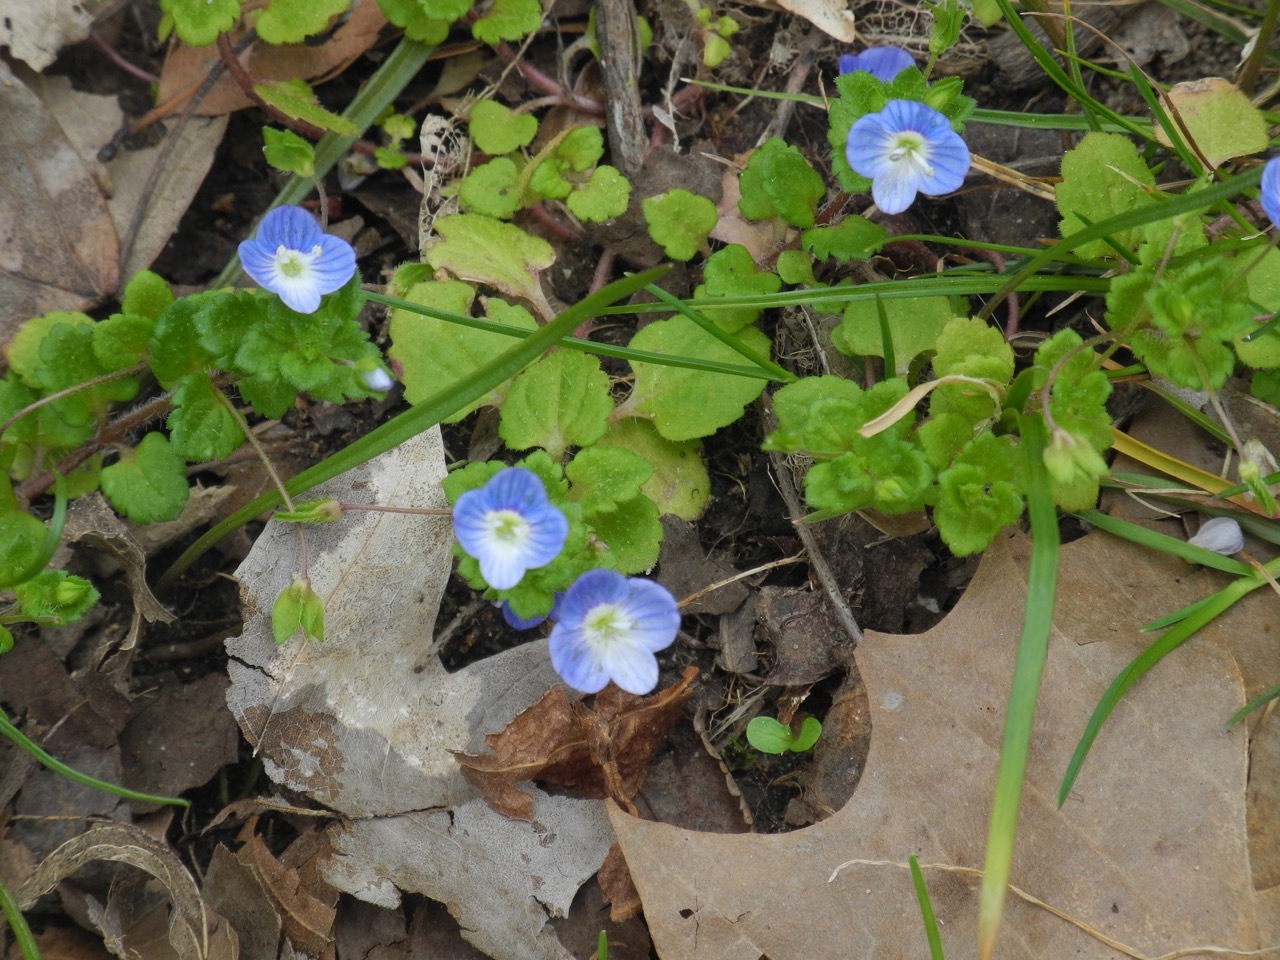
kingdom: Plantae
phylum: Tracheophyta
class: Magnoliopsida
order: Lamiales
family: Plantaginaceae
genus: Veronica
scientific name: Veronica hederifolia
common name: Ivy-leaved speedwell
